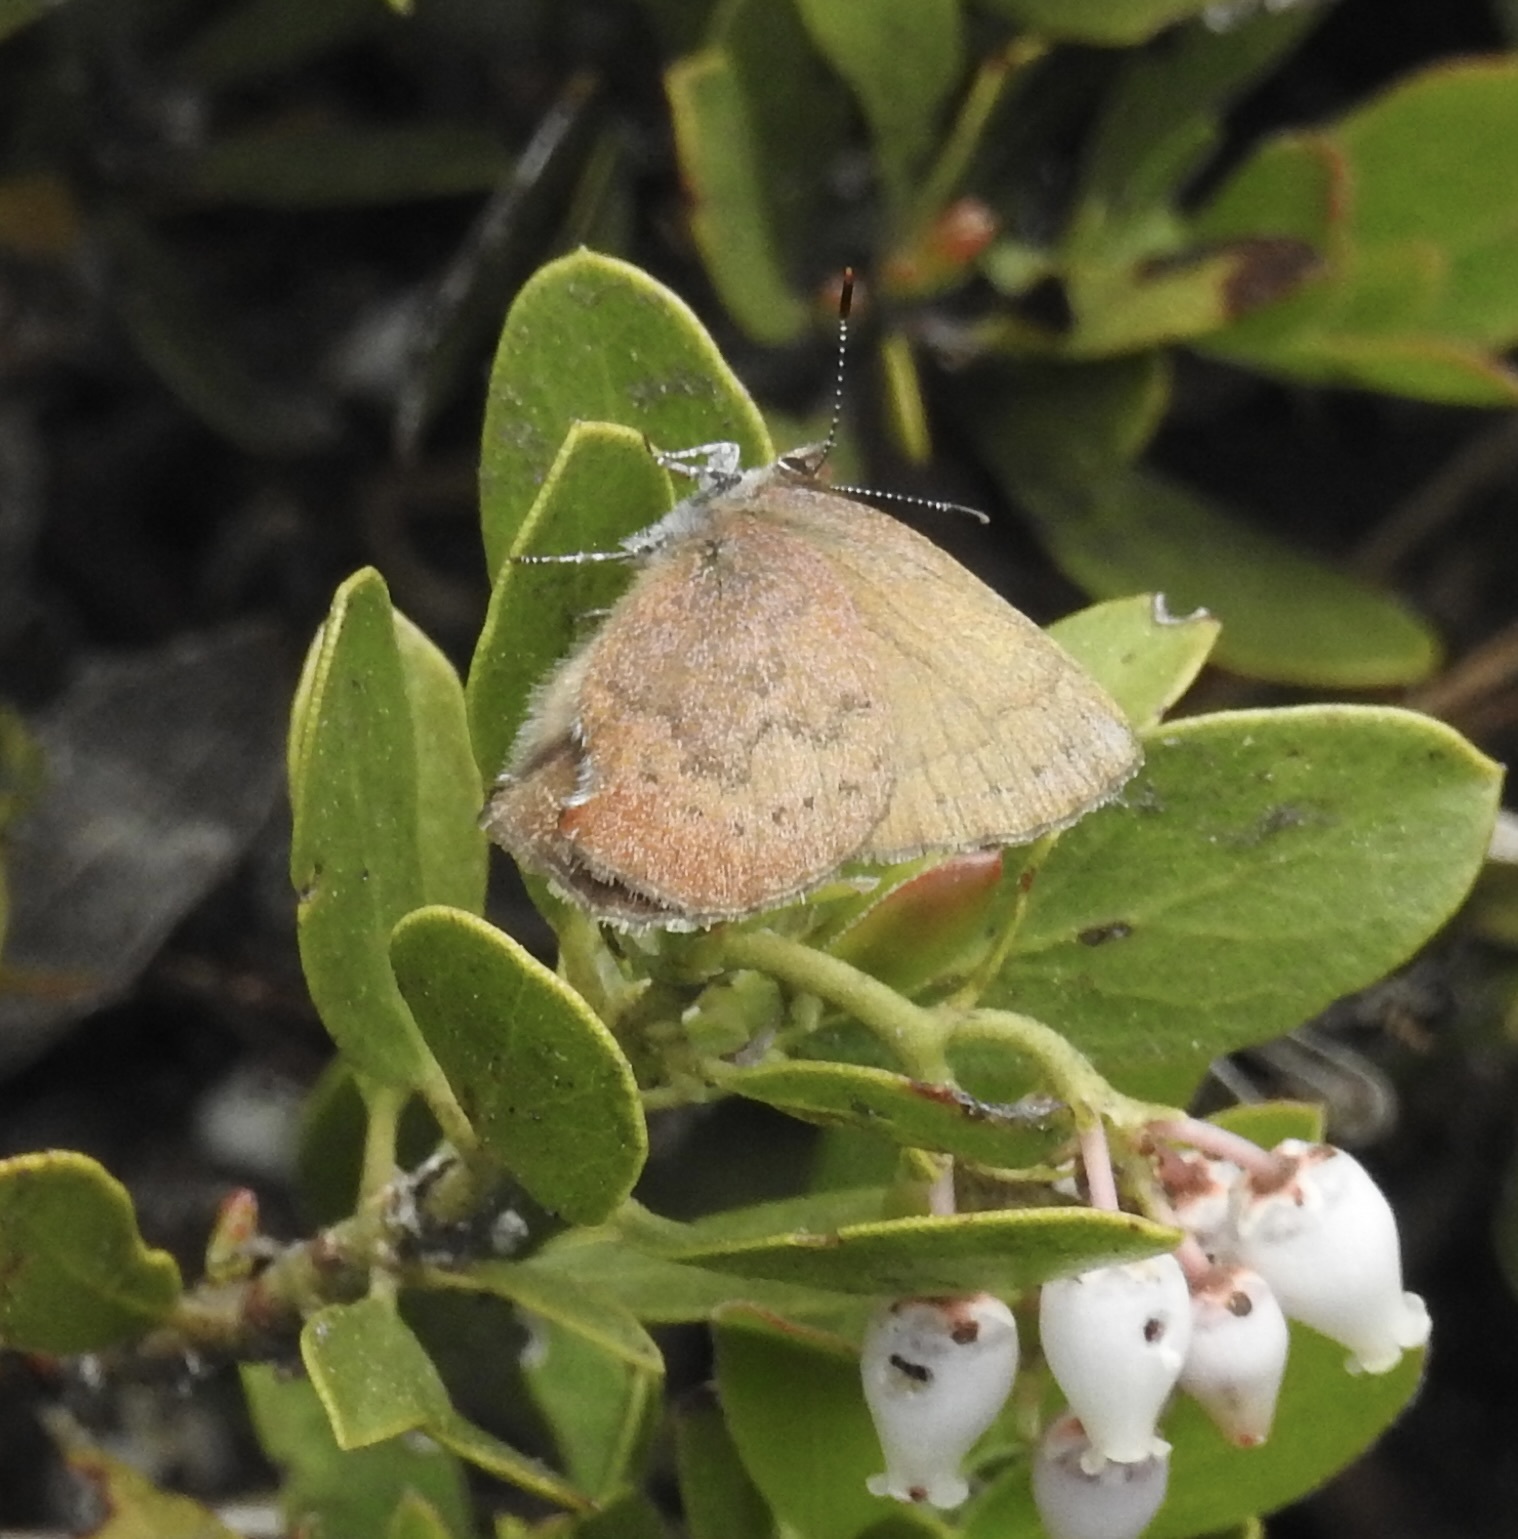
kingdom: Animalia
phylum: Arthropoda
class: Insecta
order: Lepidoptera
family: Lycaenidae
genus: Incisalia
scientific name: Incisalia irioides
